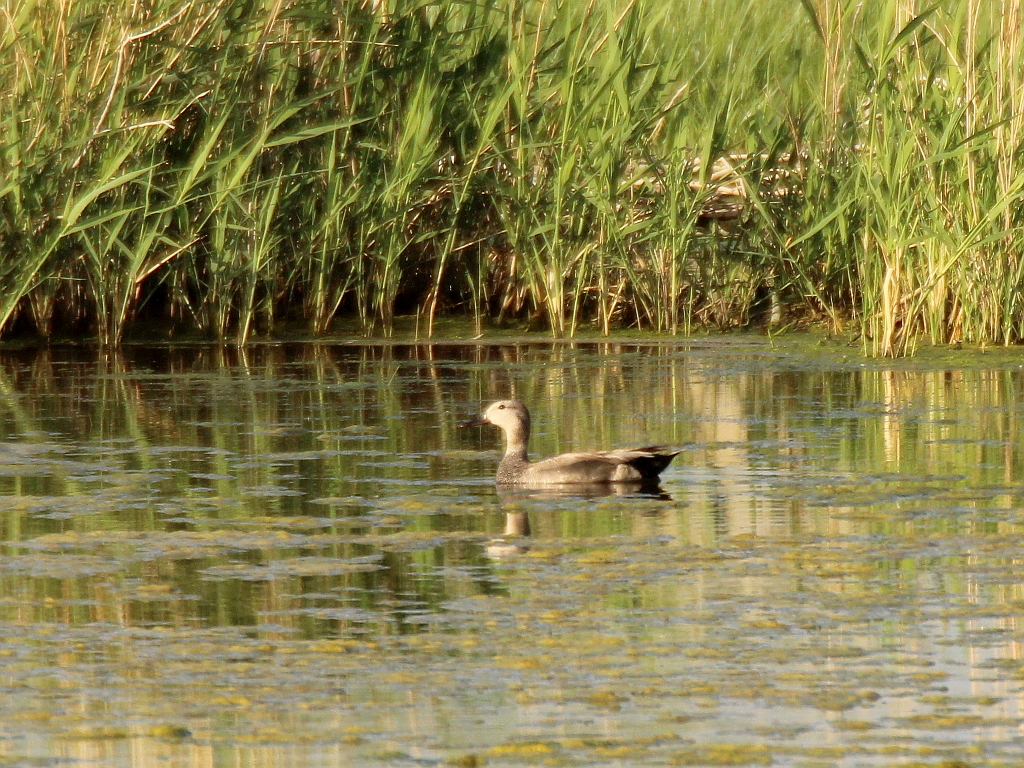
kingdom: Animalia
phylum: Chordata
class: Aves
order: Anseriformes
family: Anatidae
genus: Mareca
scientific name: Mareca strepera
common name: Gadwall
